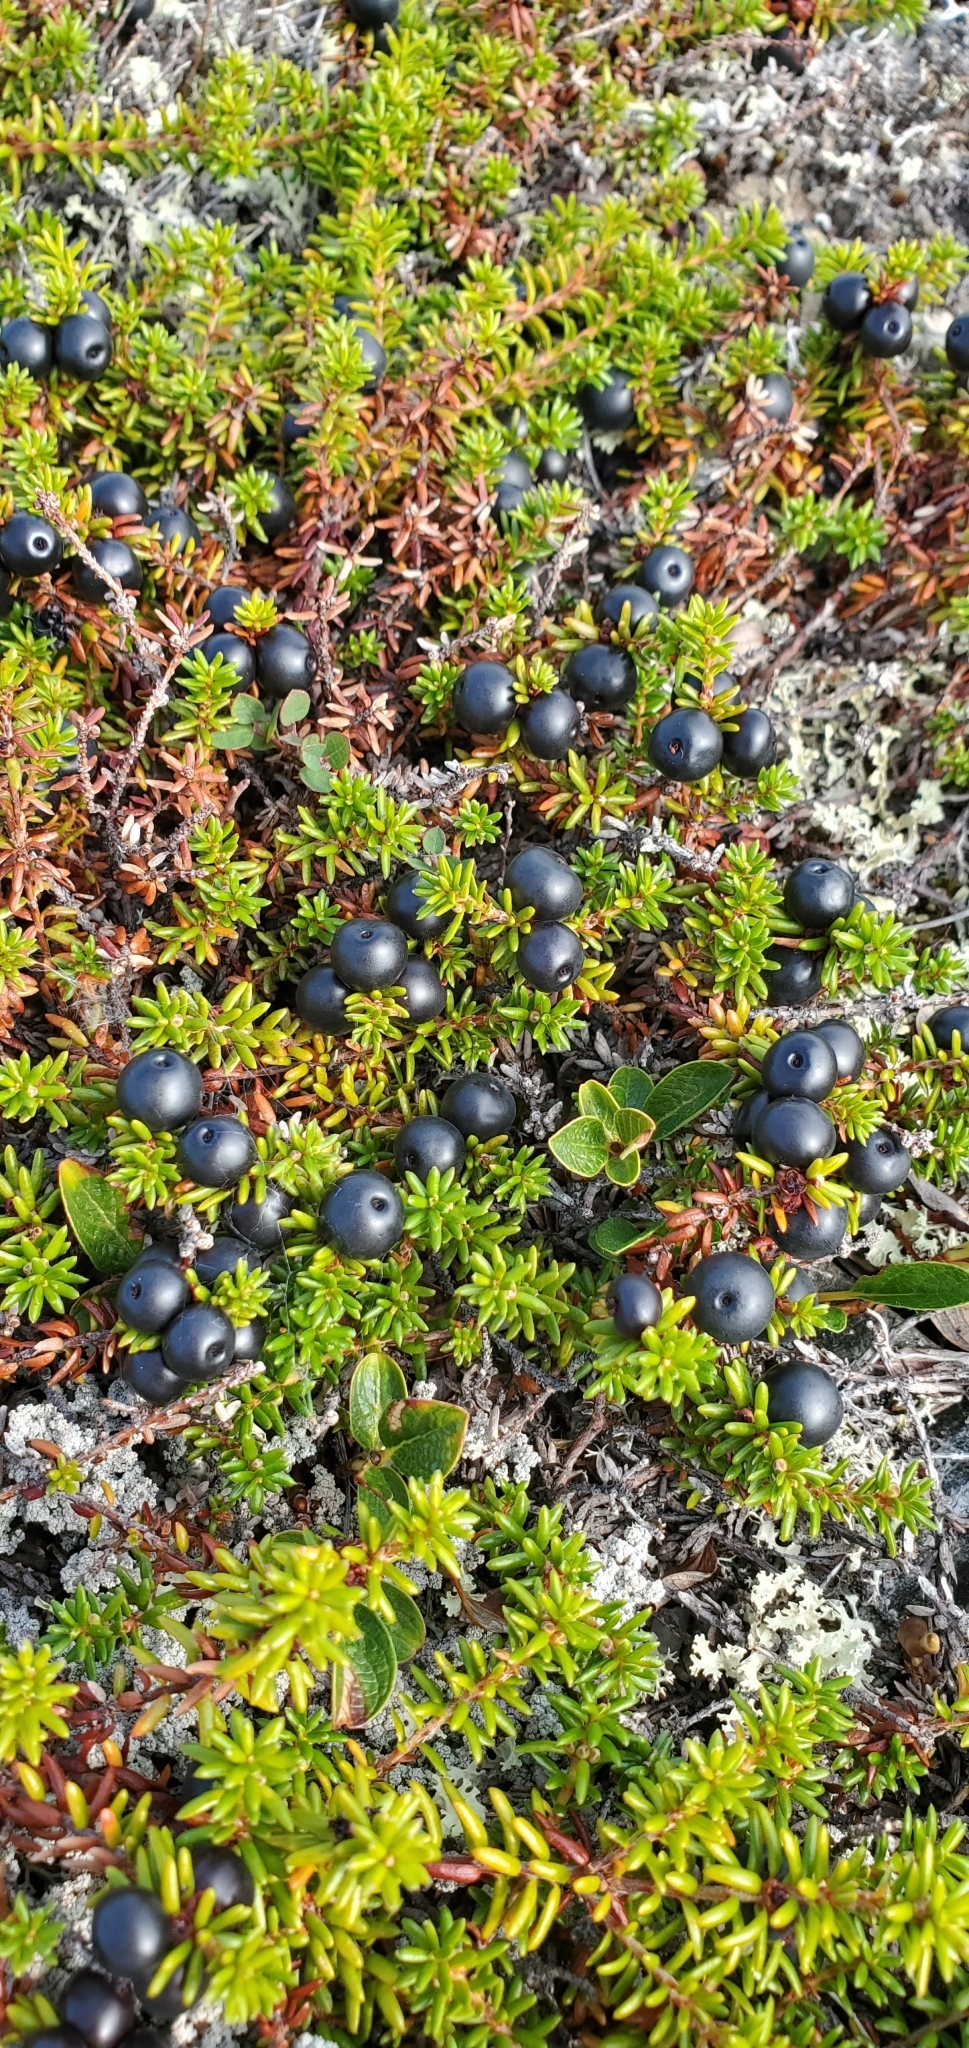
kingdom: Plantae
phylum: Tracheophyta
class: Magnoliopsida
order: Ericales
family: Ericaceae
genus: Empetrum
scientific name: Empetrum nigrum
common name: Black crowberry
